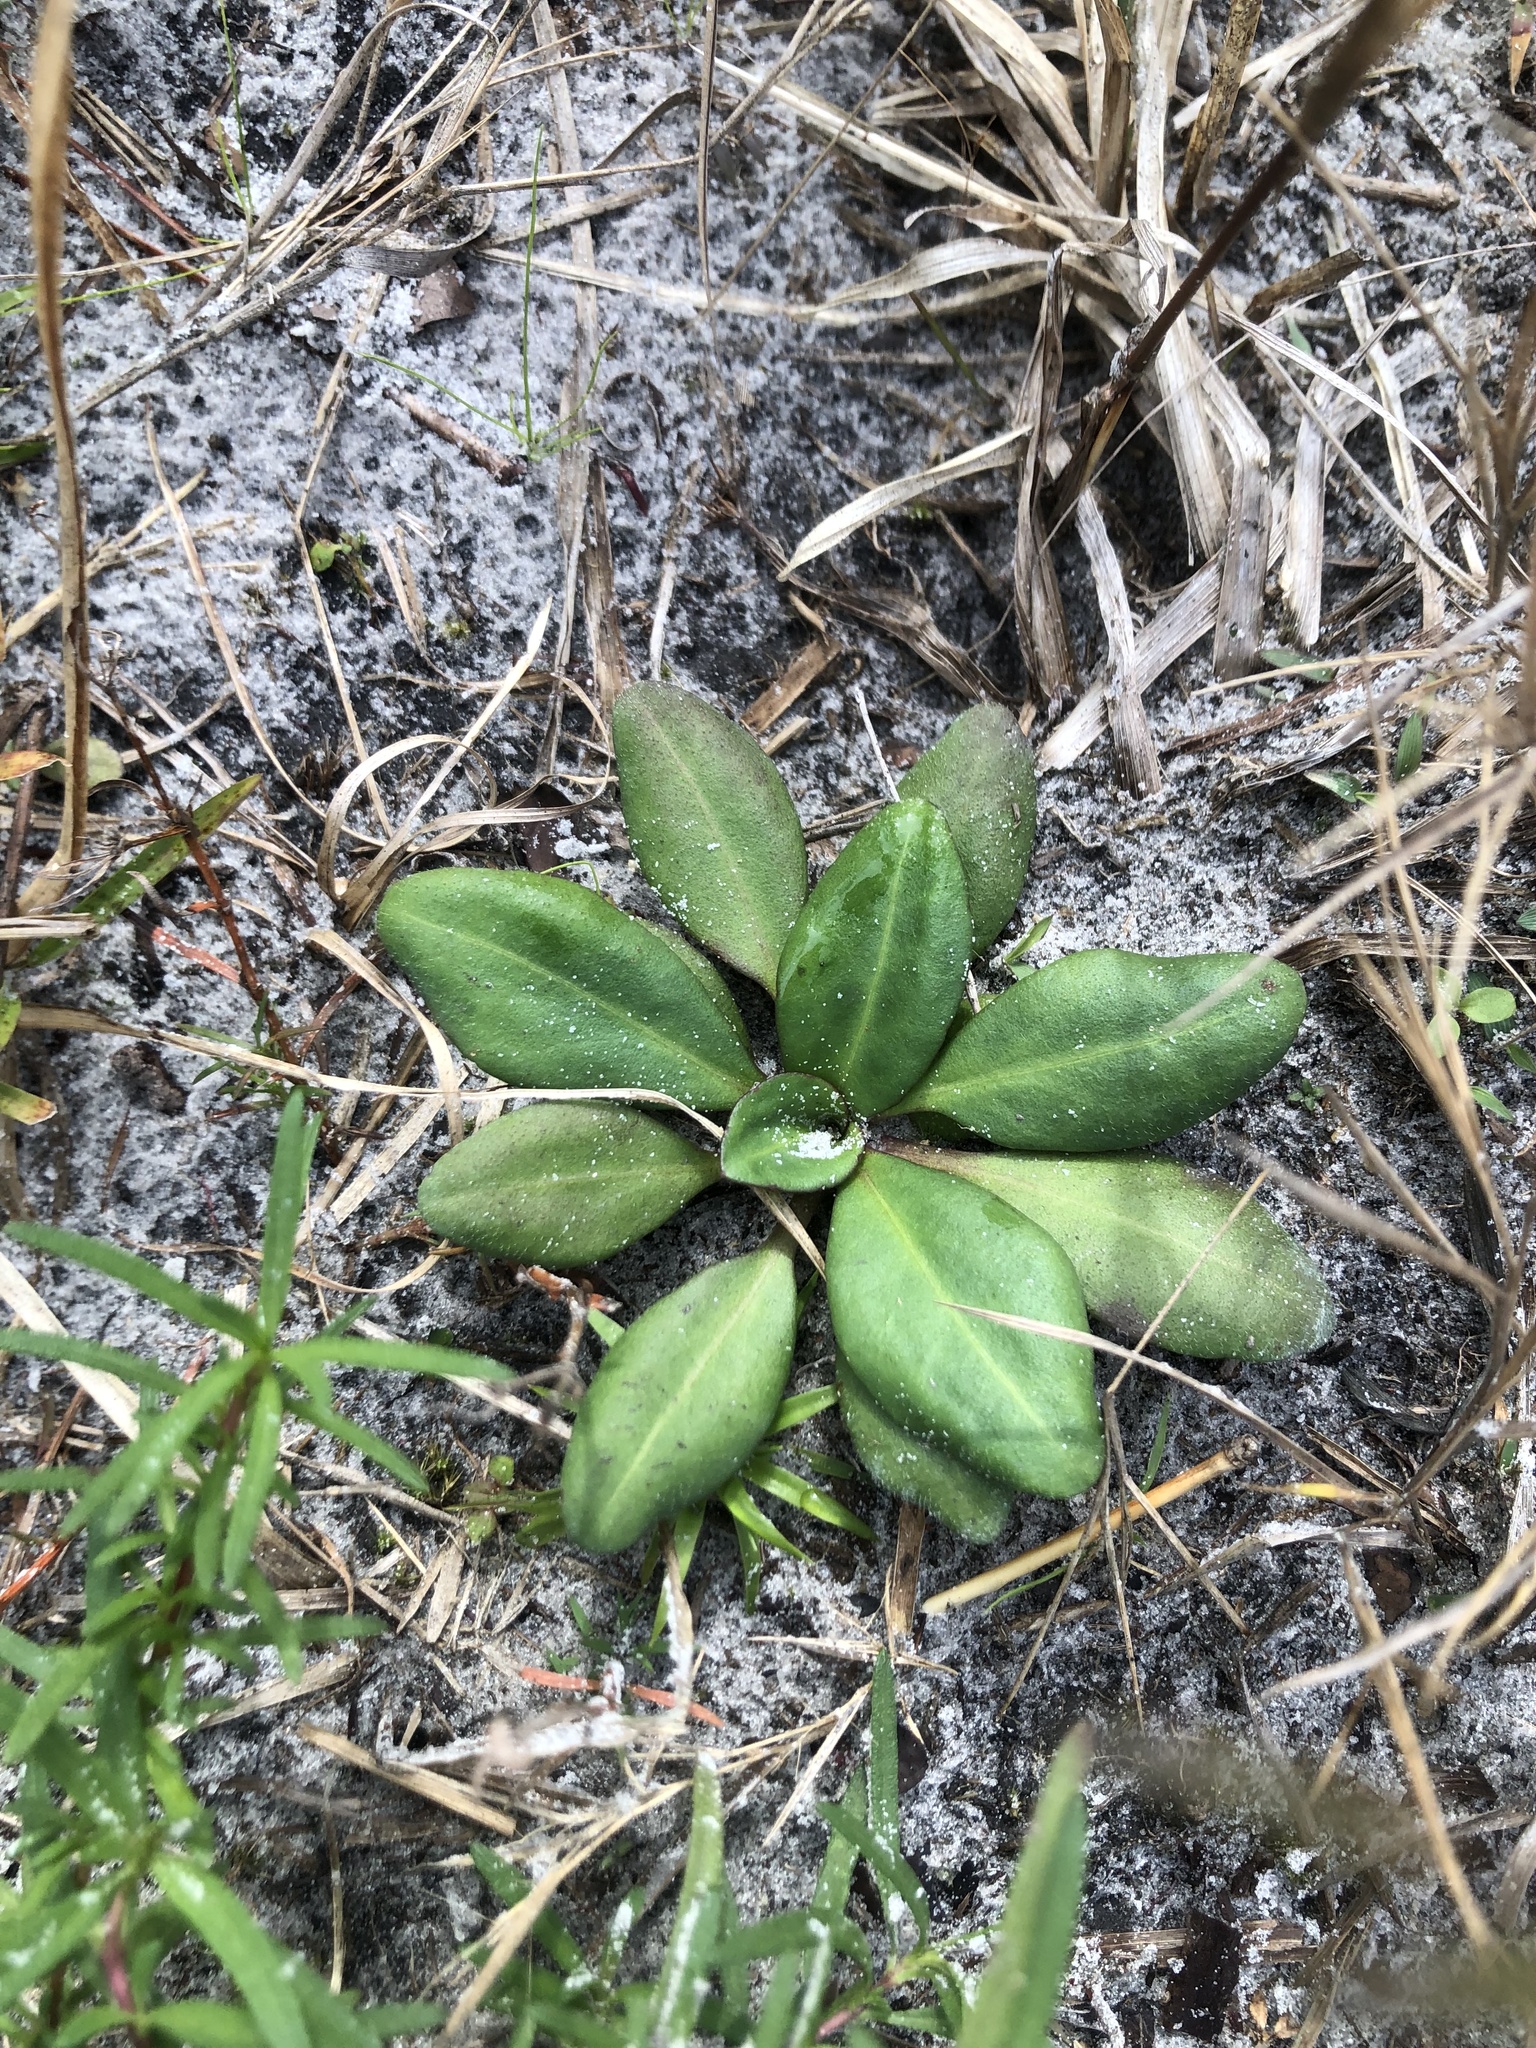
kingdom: Plantae
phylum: Tracheophyta
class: Magnoliopsida
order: Asterales
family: Asteraceae
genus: Erigeron
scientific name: Erigeron vernus
